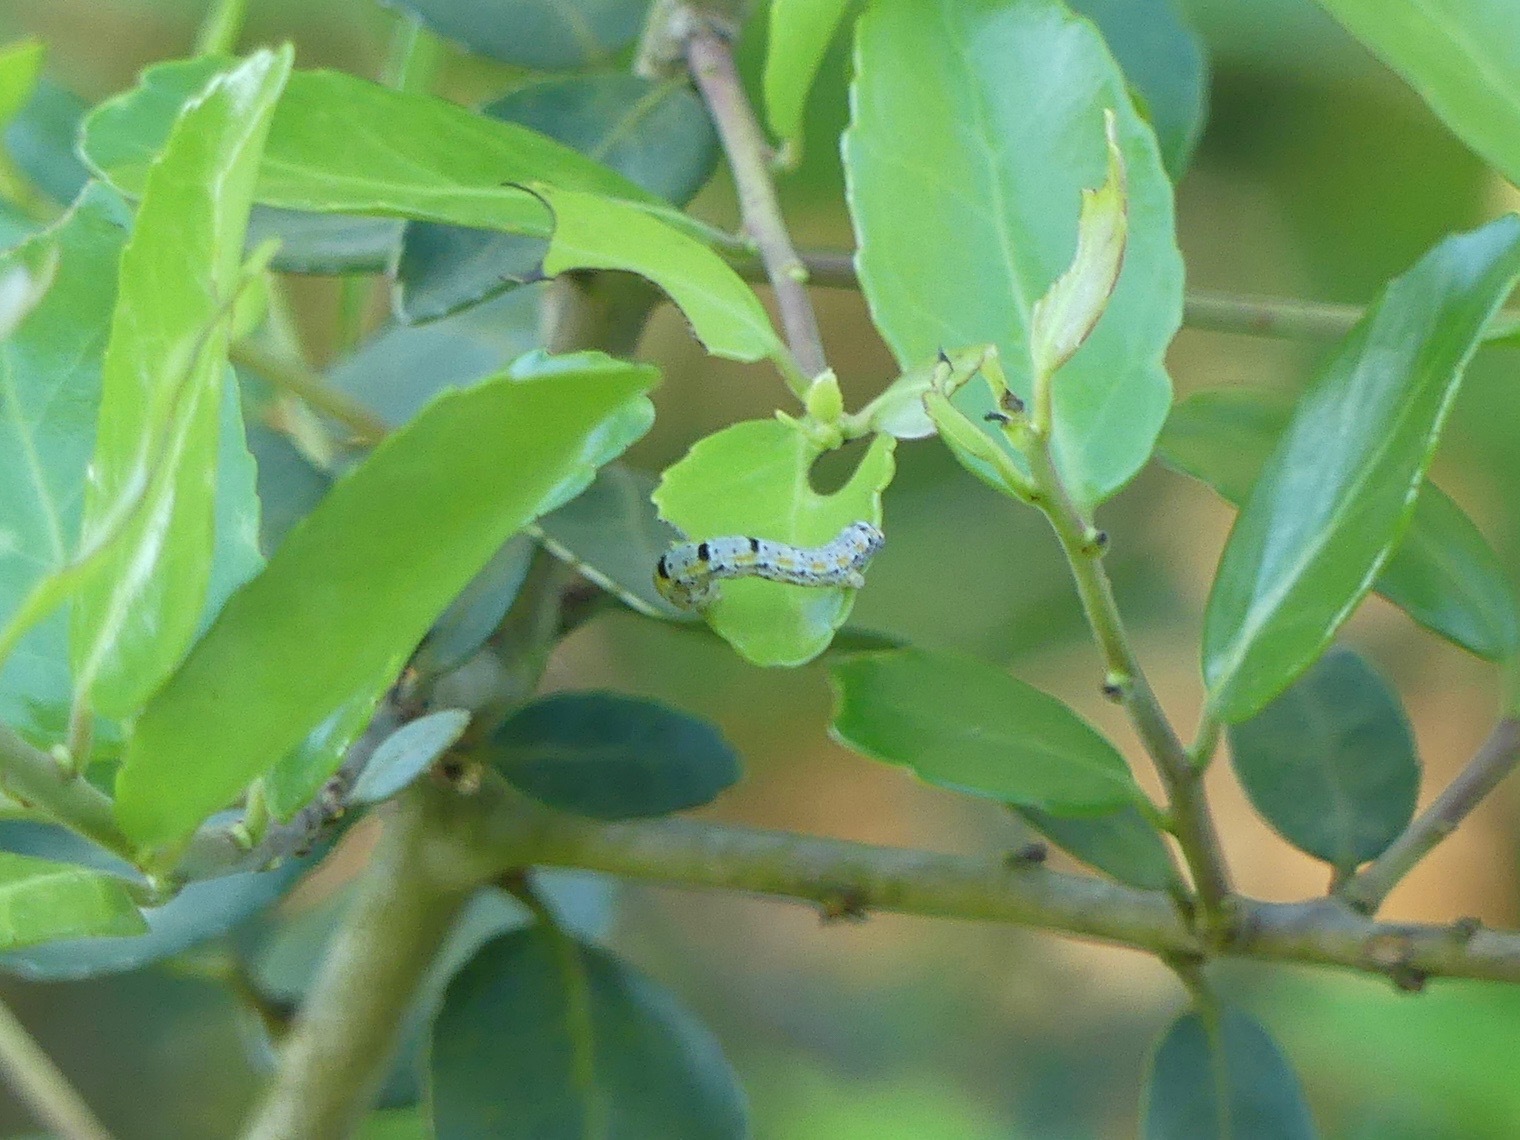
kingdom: Animalia
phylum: Arthropoda
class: Insecta
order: Lepidoptera
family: Geometridae
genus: Episemasia
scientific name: Episemasia cervinaria
